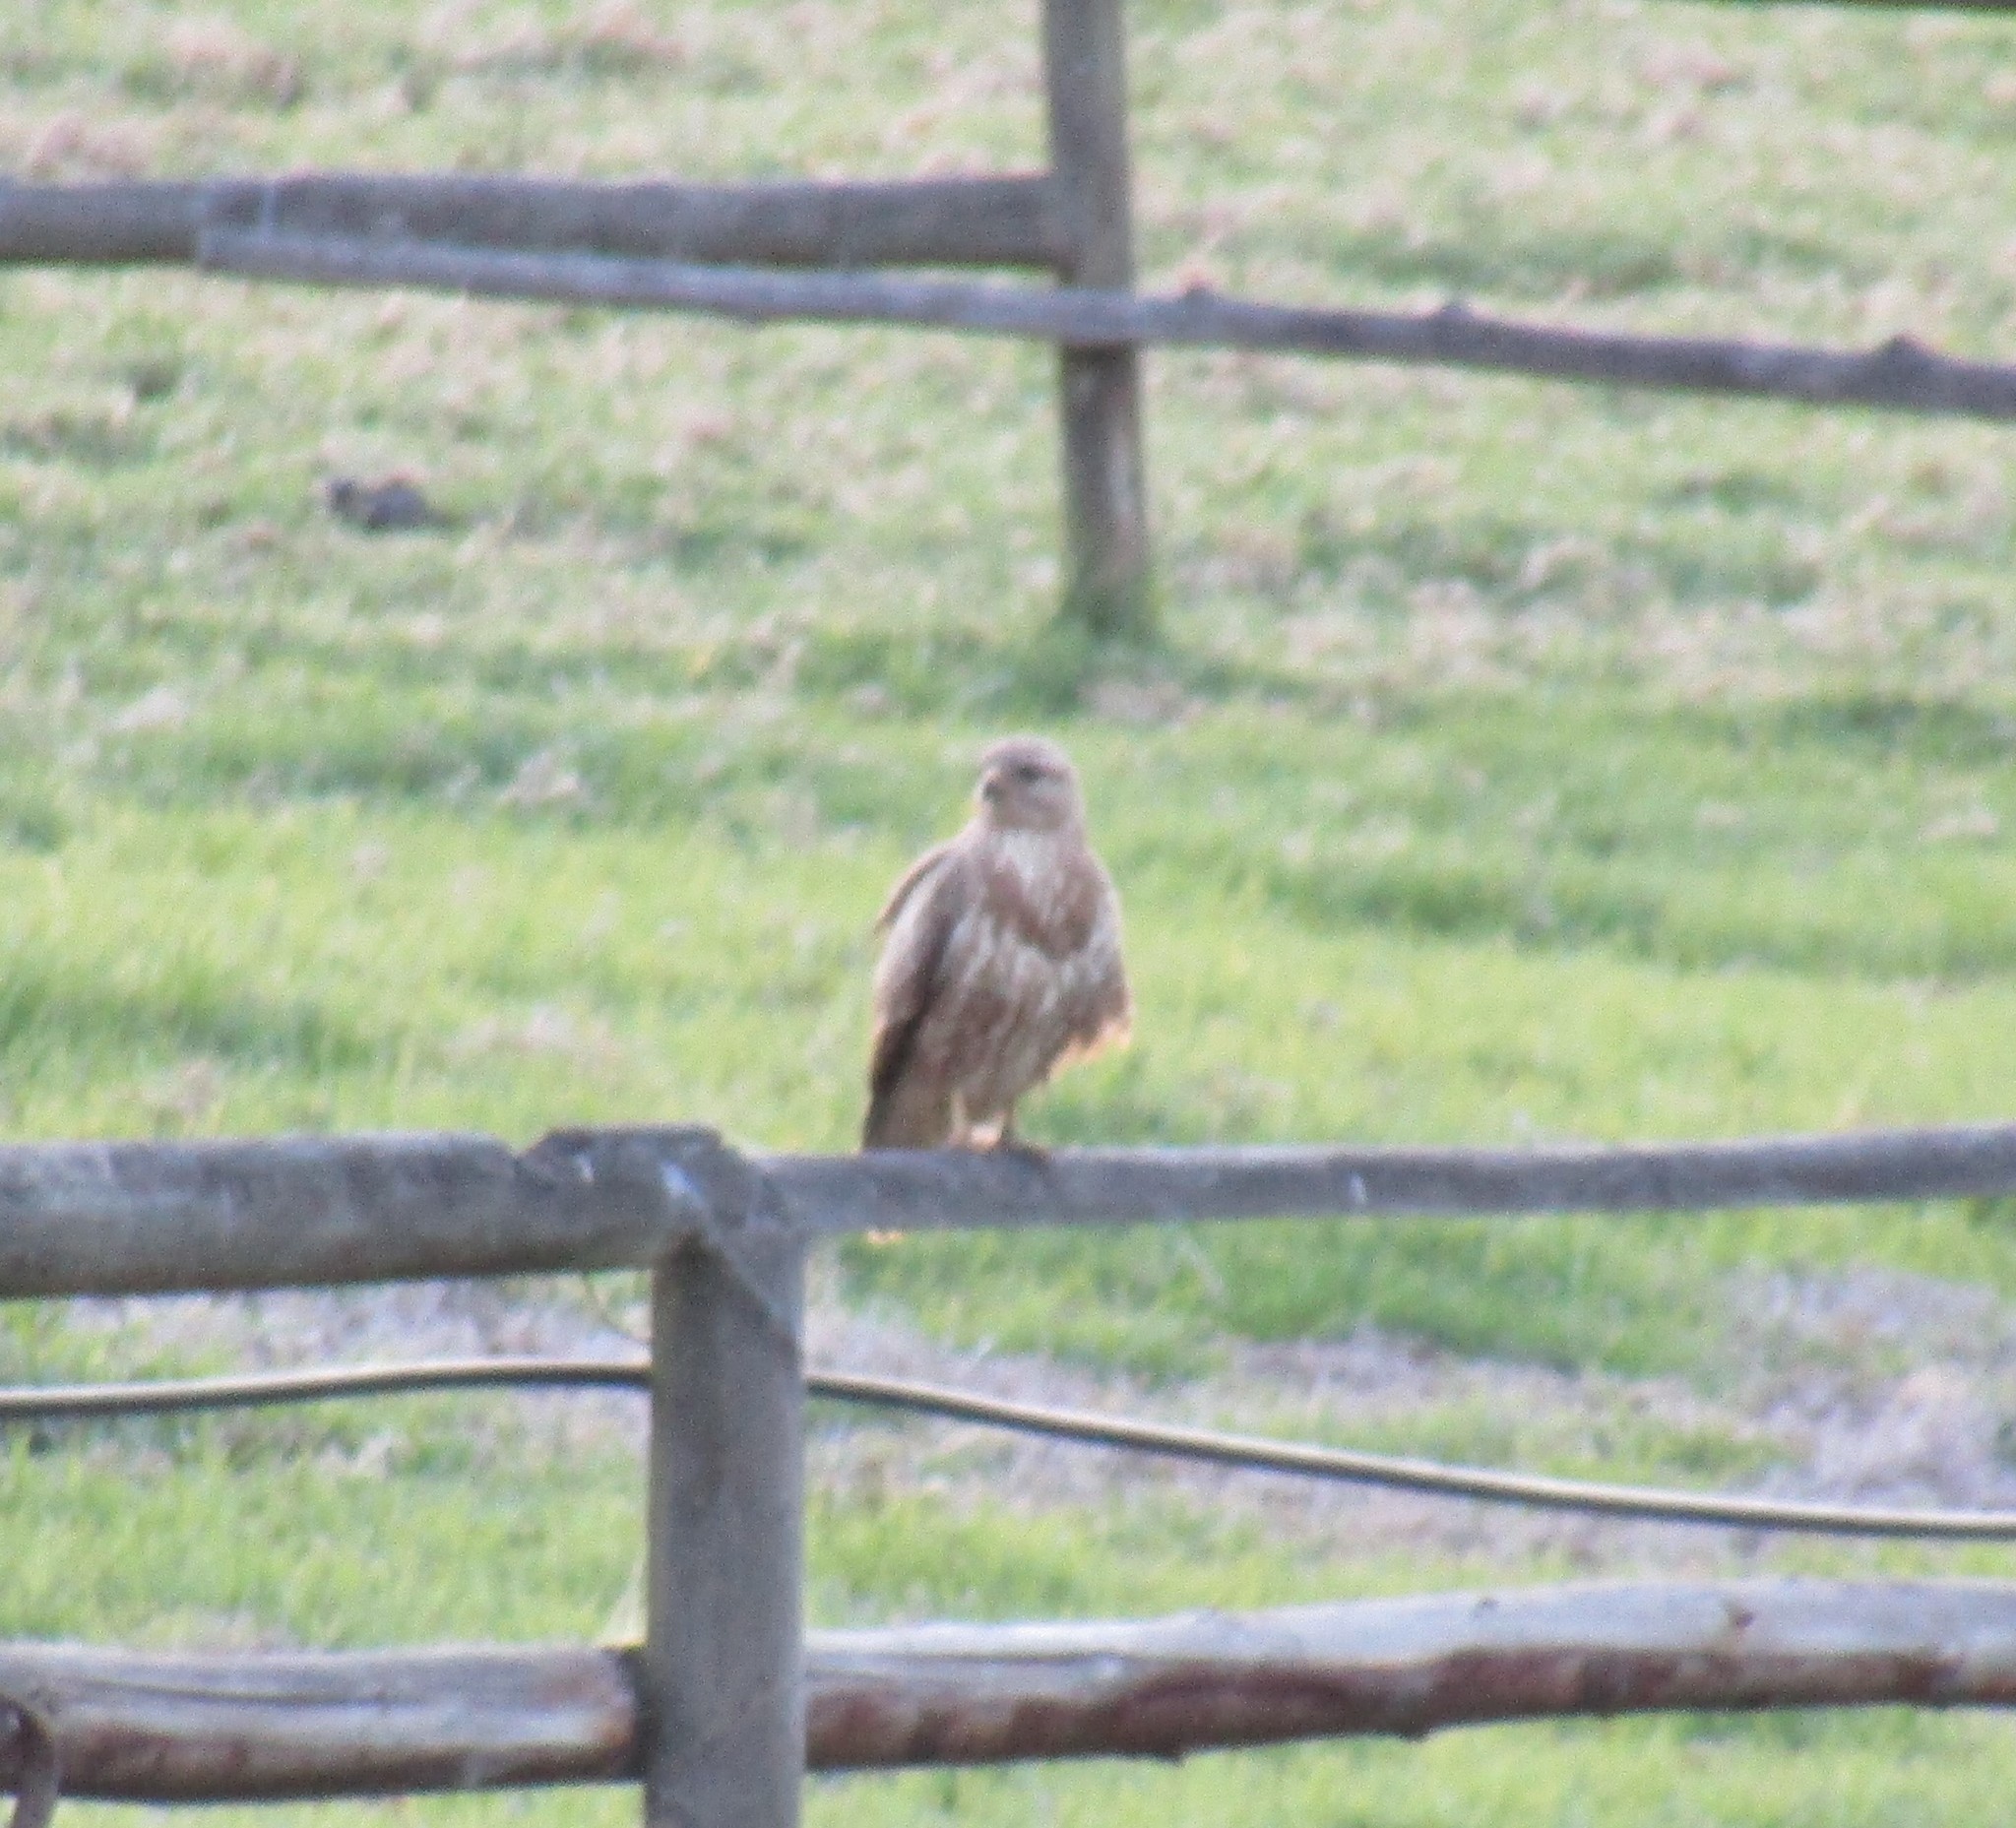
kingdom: Animalia
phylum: Chordata
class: Aves
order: Accipitriformes
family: Accipitridae
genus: Buteo
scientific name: Buteo buteo
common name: Common buzzard
